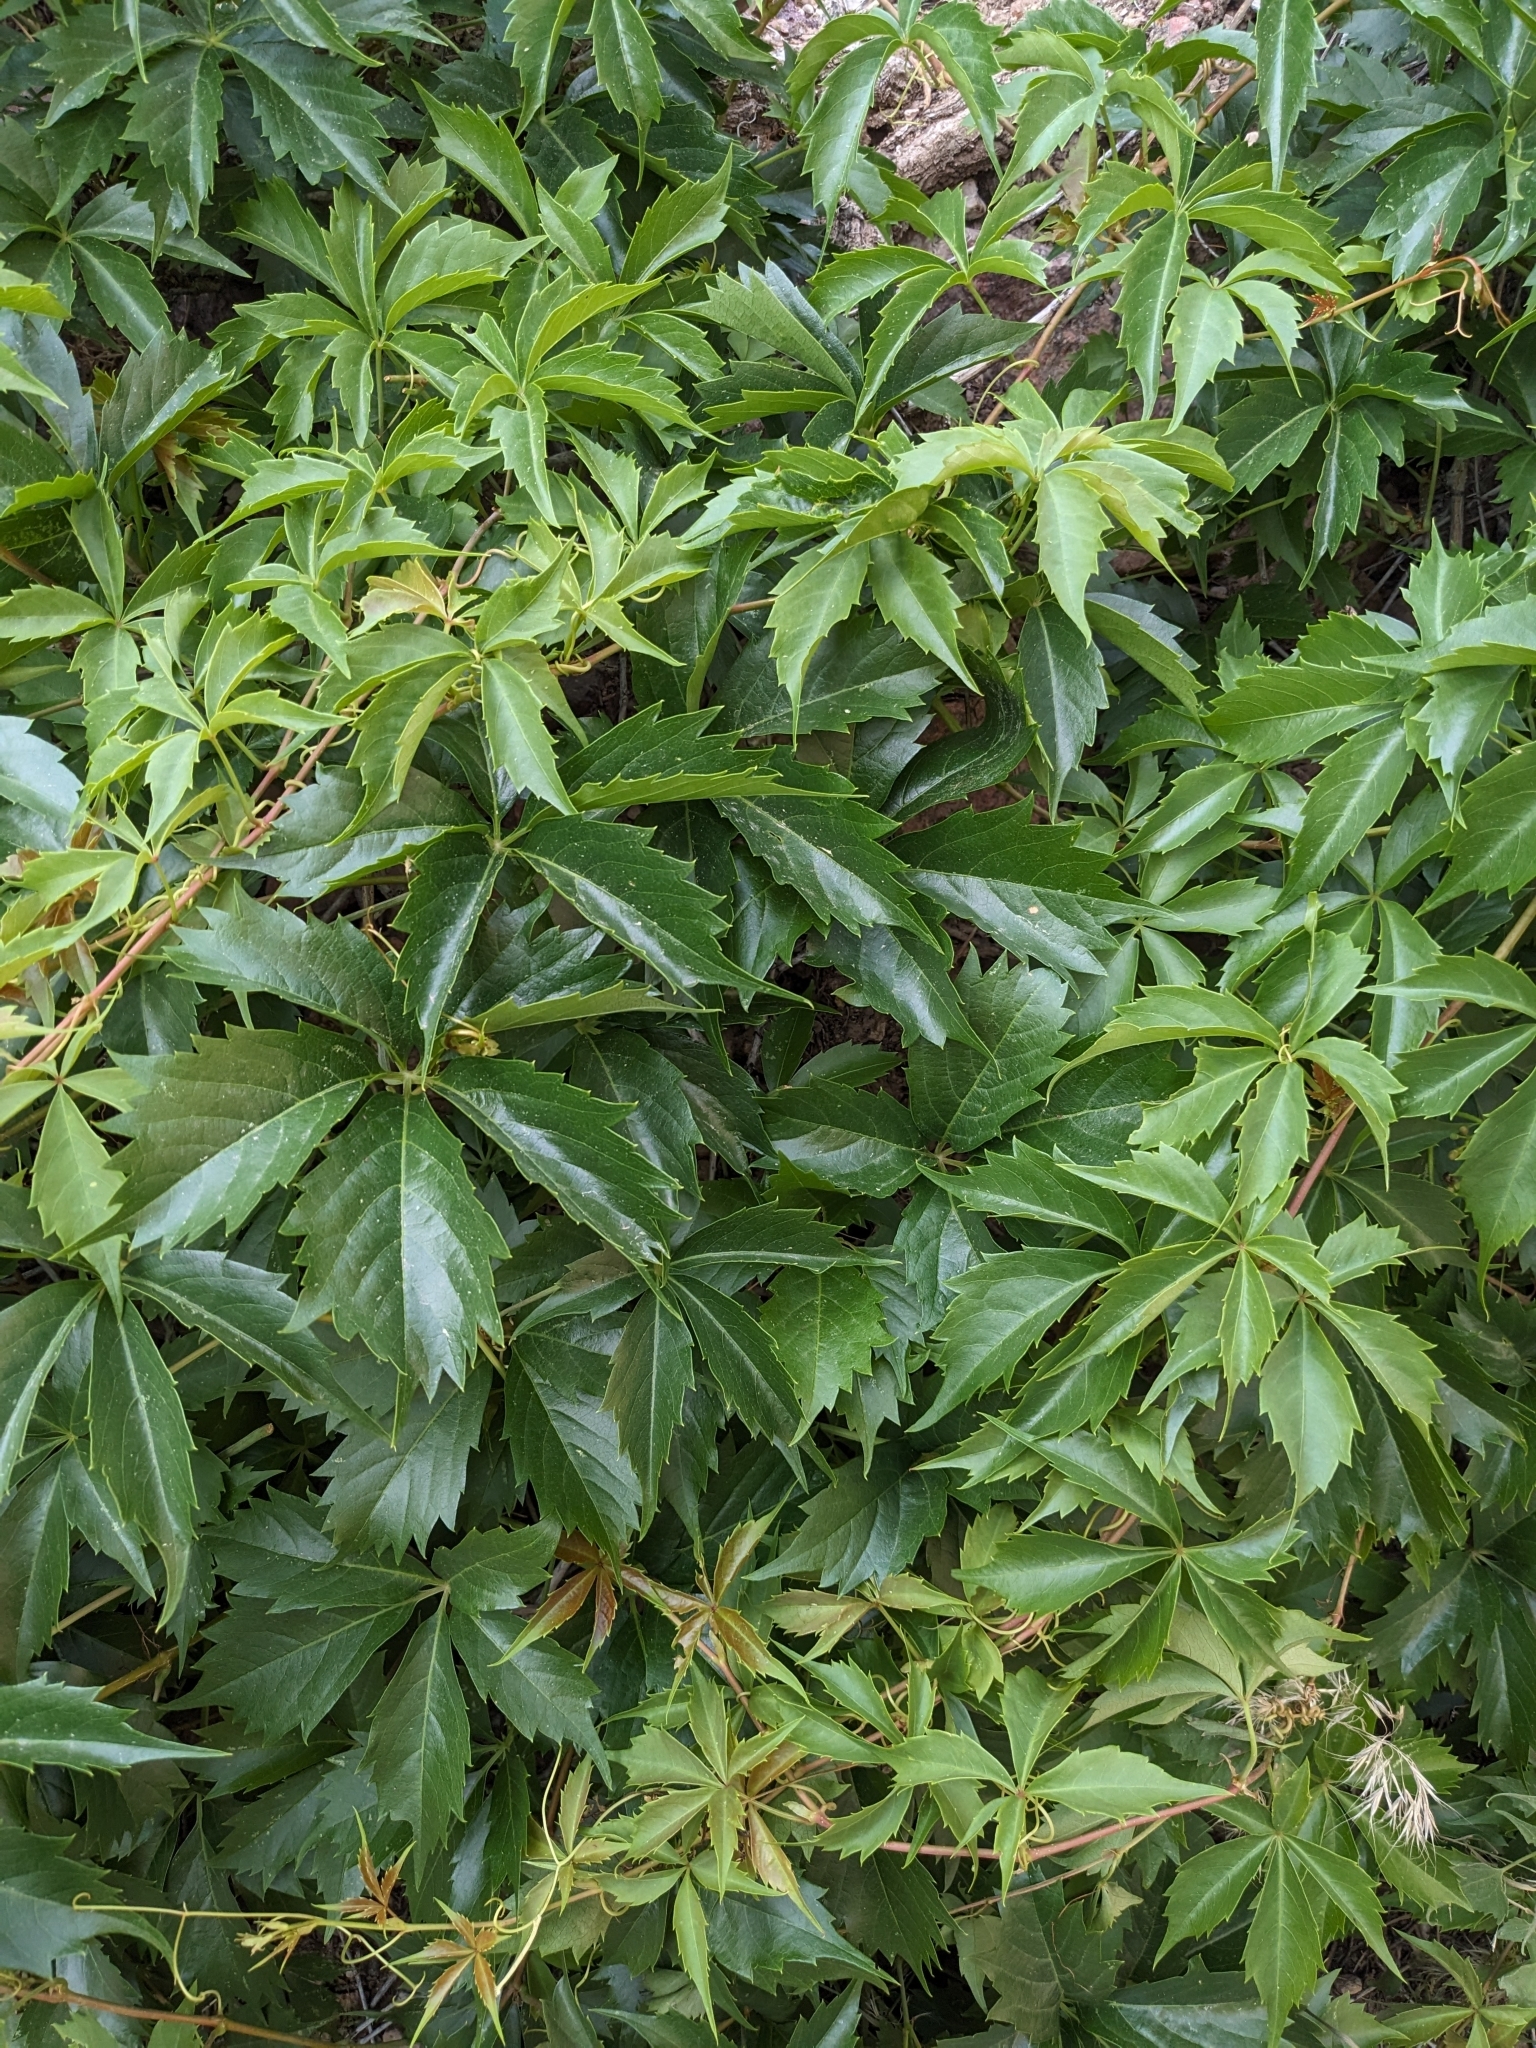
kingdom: Plantae
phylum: Tracheophyta
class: Magnoliopsida
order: Vitales
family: Vitaceae
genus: Parthenocissus
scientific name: Parthenocissus quinquefolia
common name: Virginia-creeper
